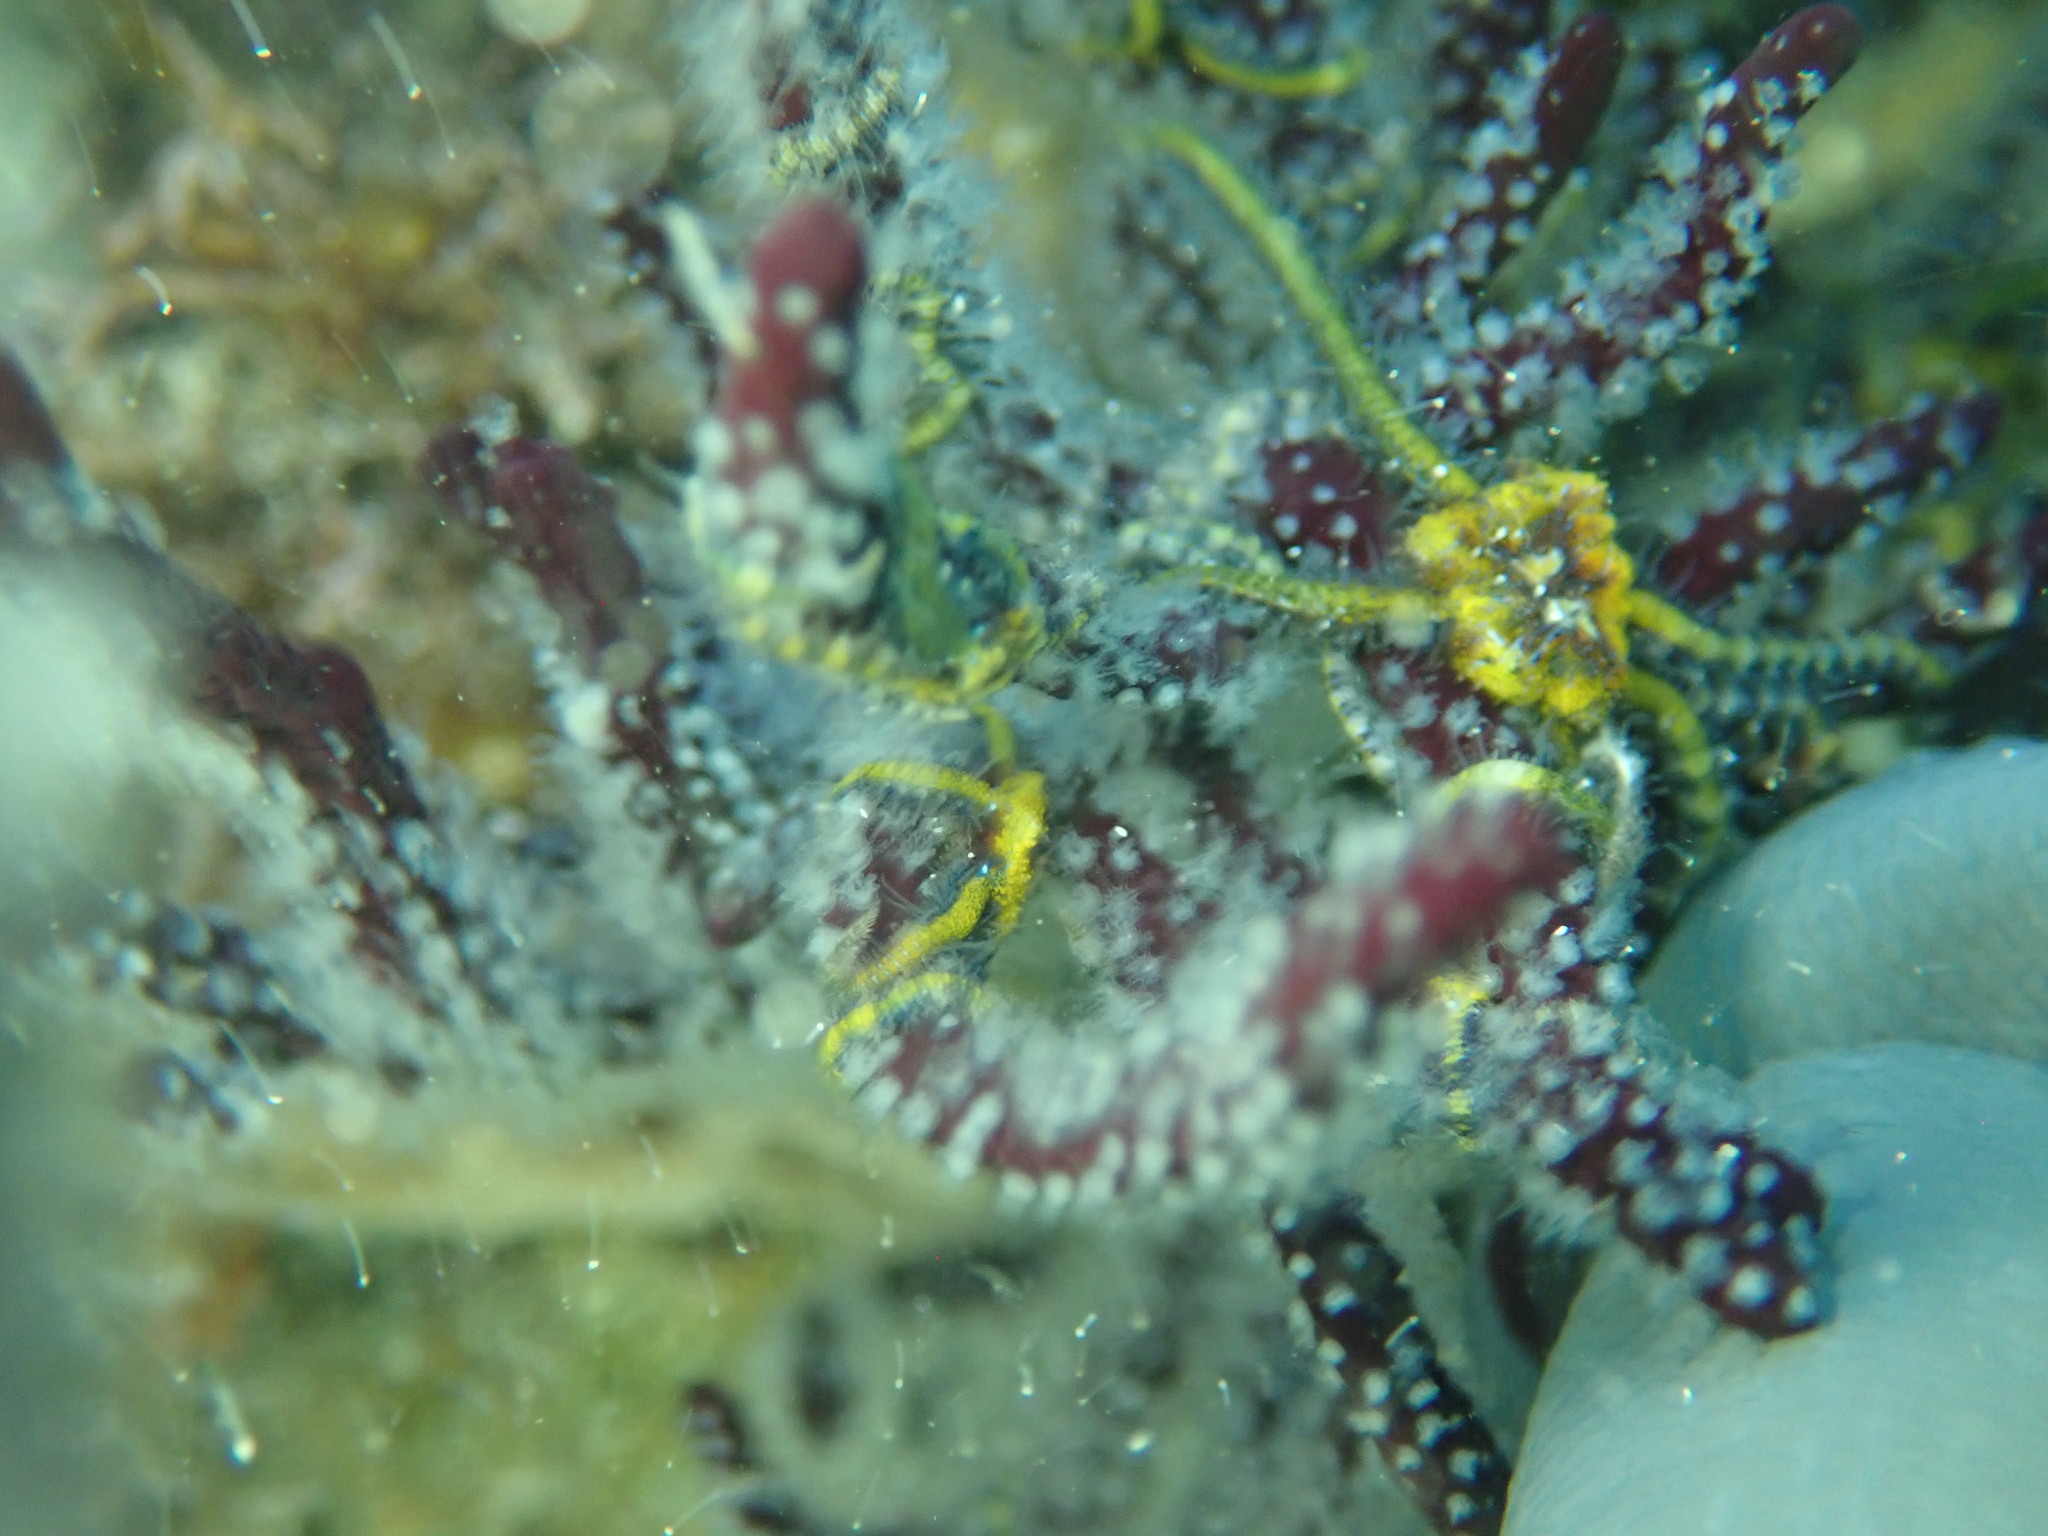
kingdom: Animalia
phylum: Echinodermata
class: Ophiuroidea
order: Amphilepidida
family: Ophiotrichidae
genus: Ophiothela
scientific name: Ophiothela mirabilis
